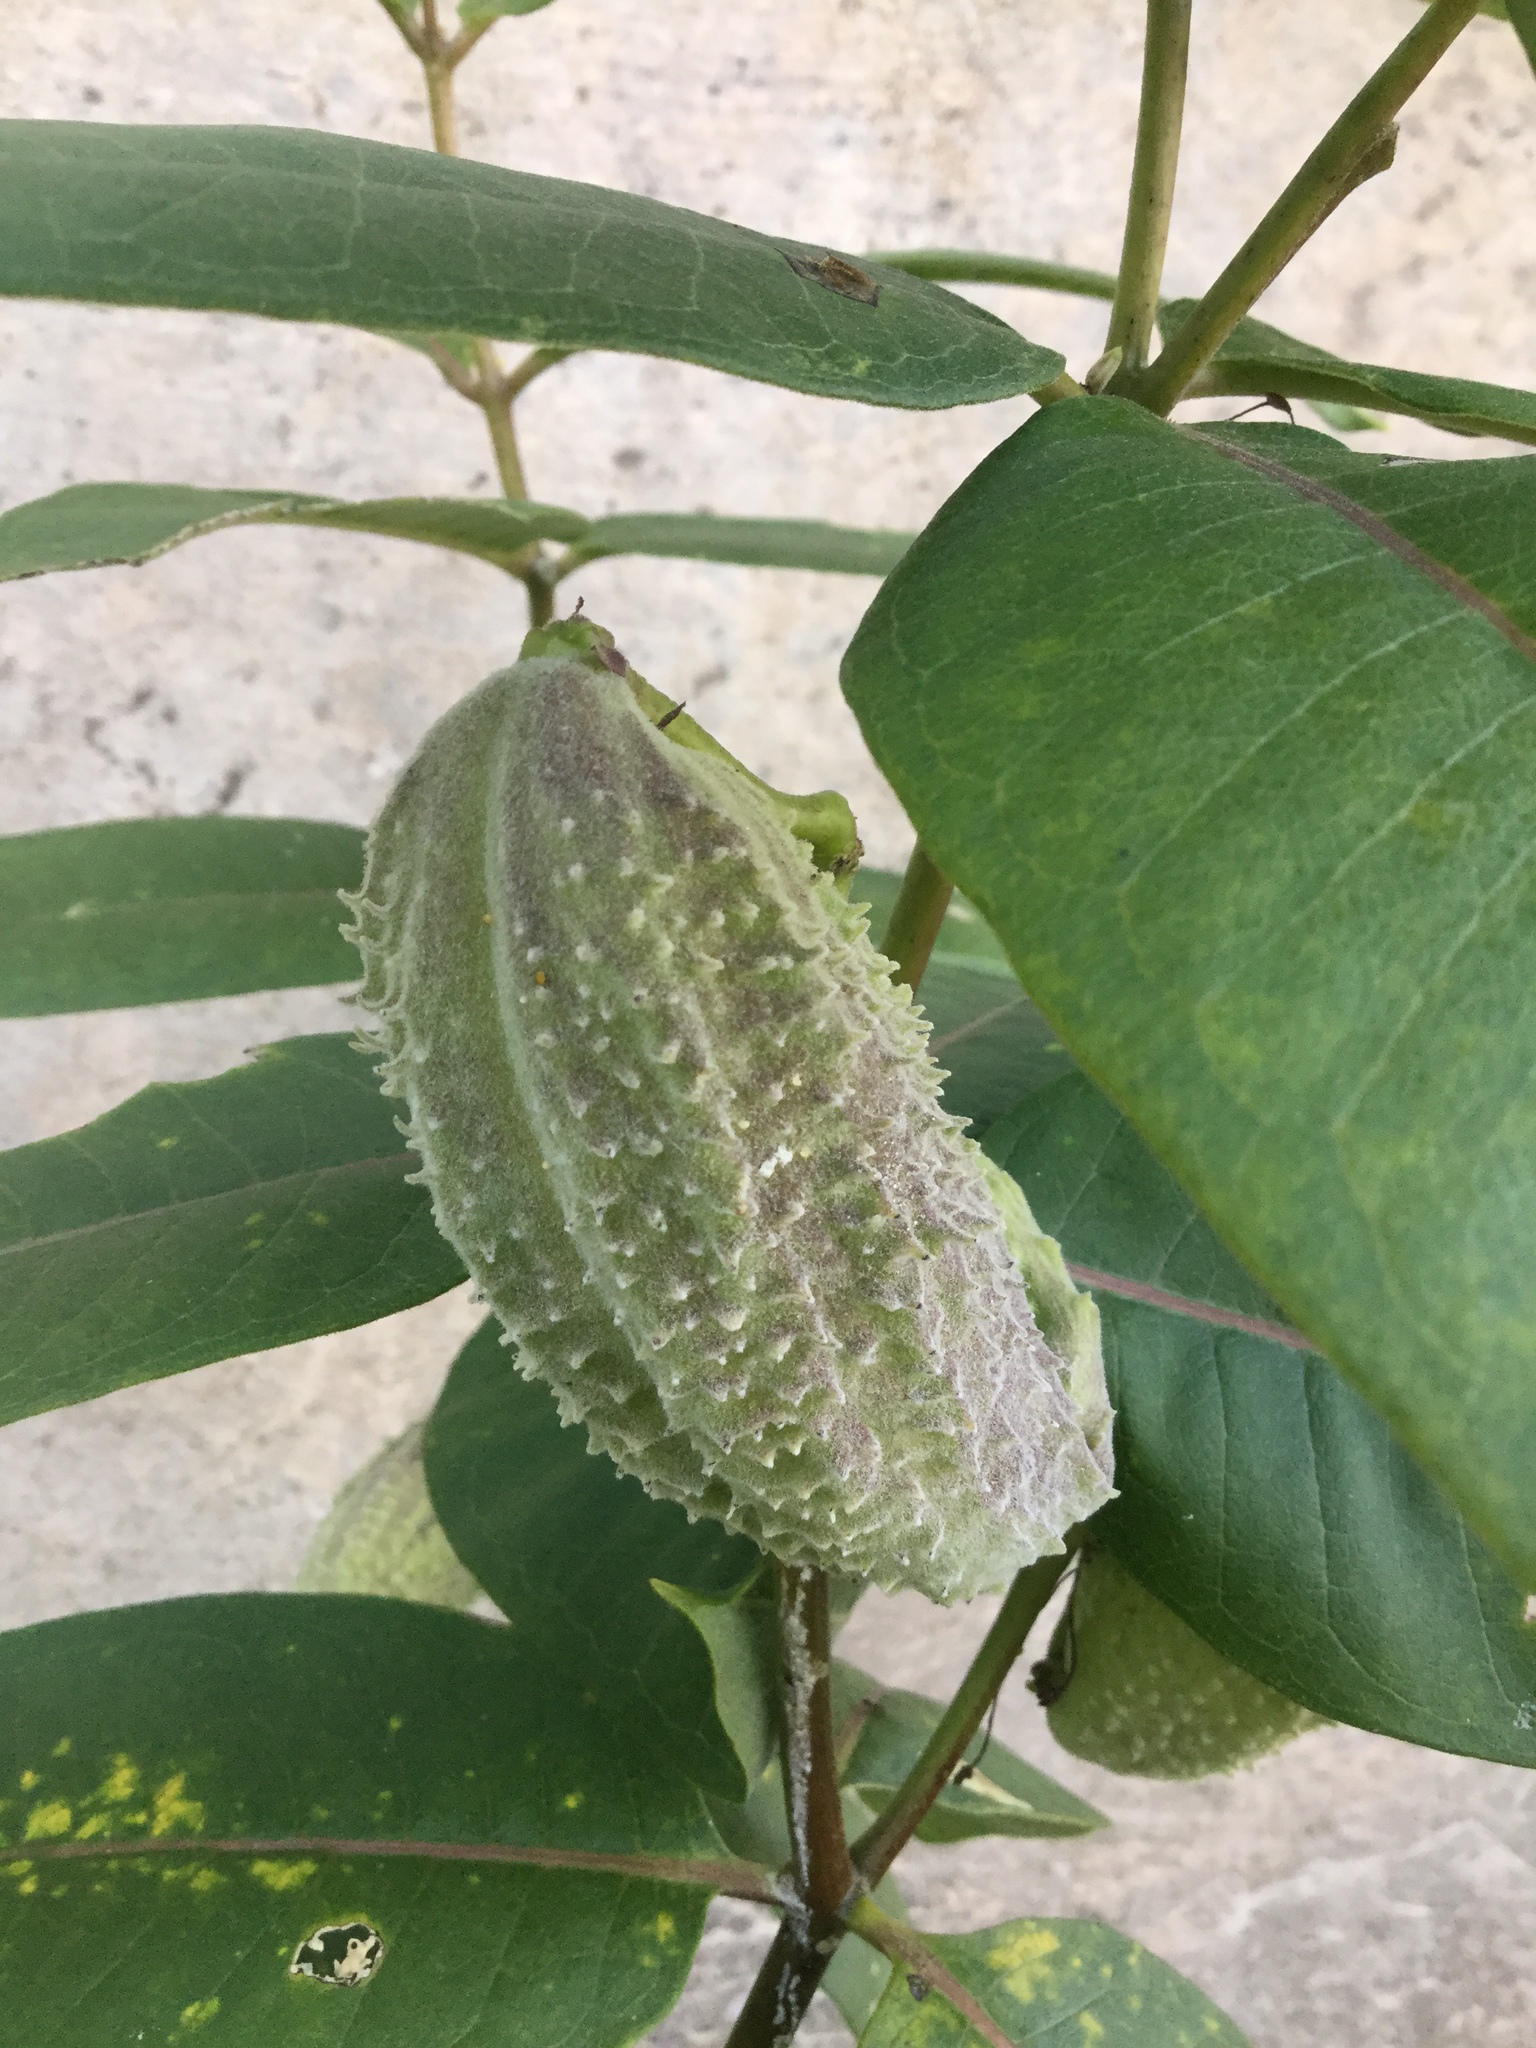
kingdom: Plantae
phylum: Tracheophyta
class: Magnoliopsida
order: Gentianales
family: Apocynaceae
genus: Asclepias
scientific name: Asclepias syriaca
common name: Common milkweed
